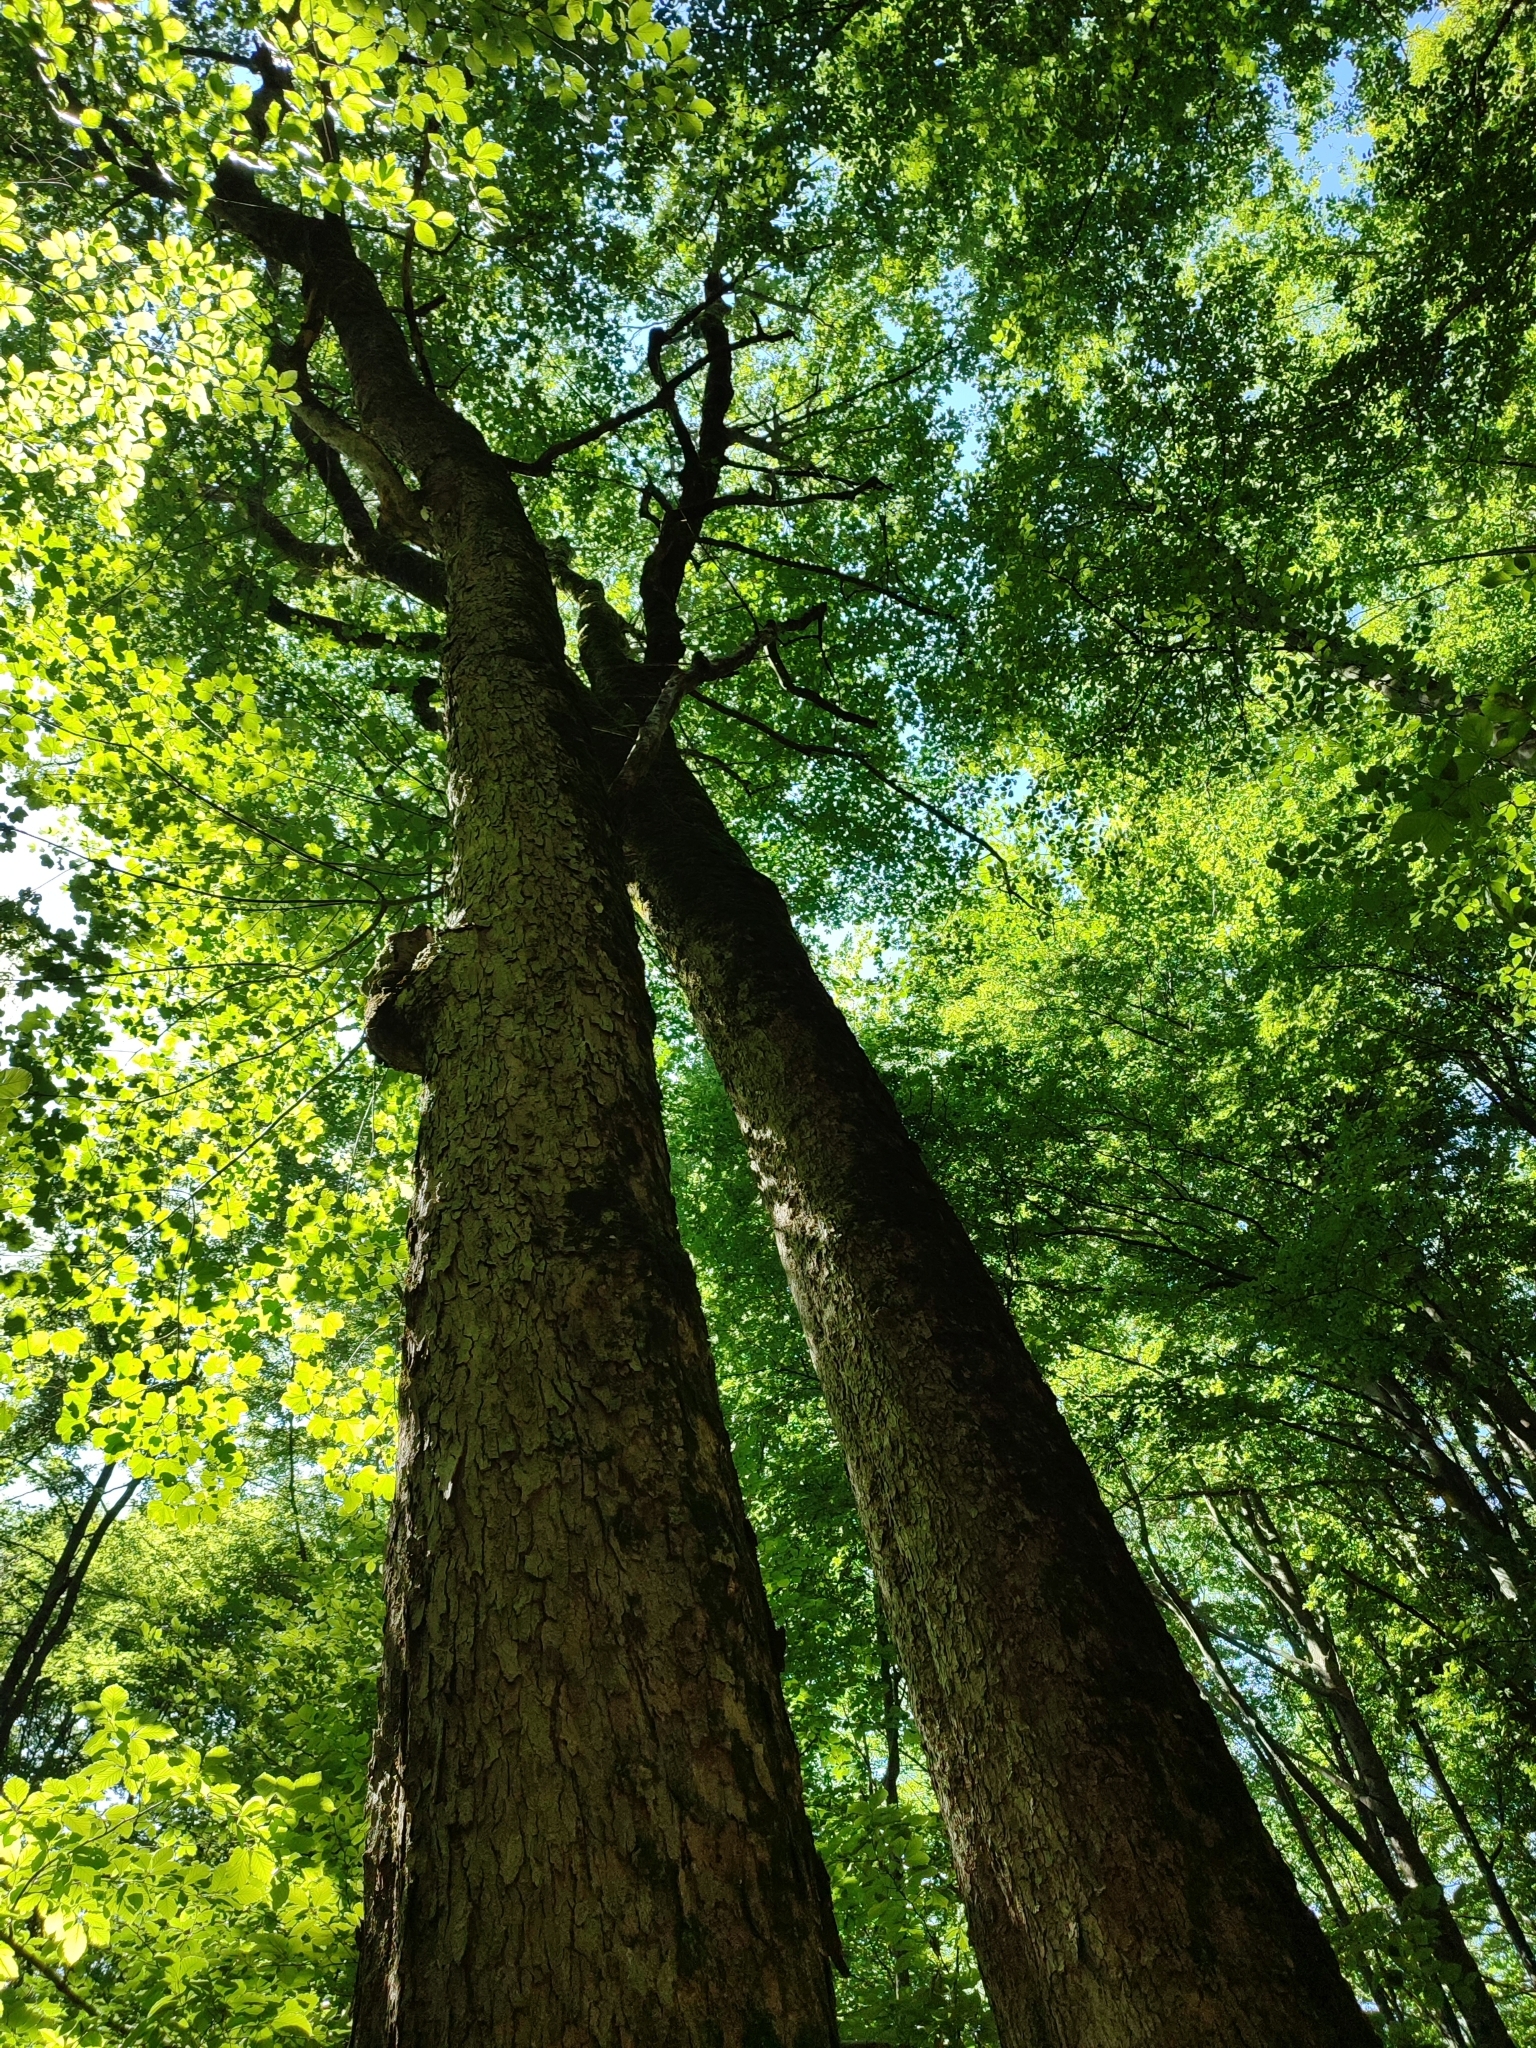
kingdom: Plantae
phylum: Tracheophyta
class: Magnoliopsida
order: Sapindales
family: Sapindaceae
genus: Acer
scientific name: Acer pseudoplatanus
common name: Sycamore
